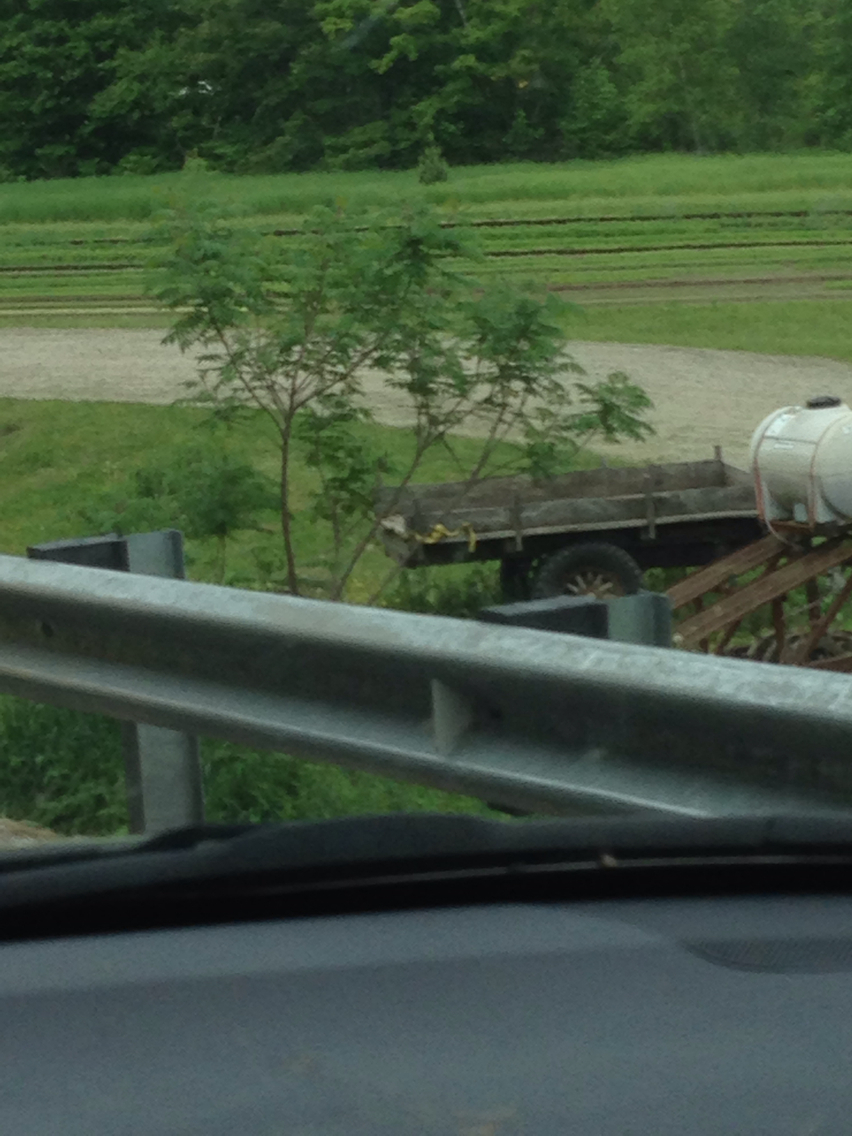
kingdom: Plantae
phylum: Tracheophyta
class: Magnoliopsida
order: Sapindales
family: Anacardiaceae
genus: Rhus
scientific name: Rhus typhina
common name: Staghorn sumac
